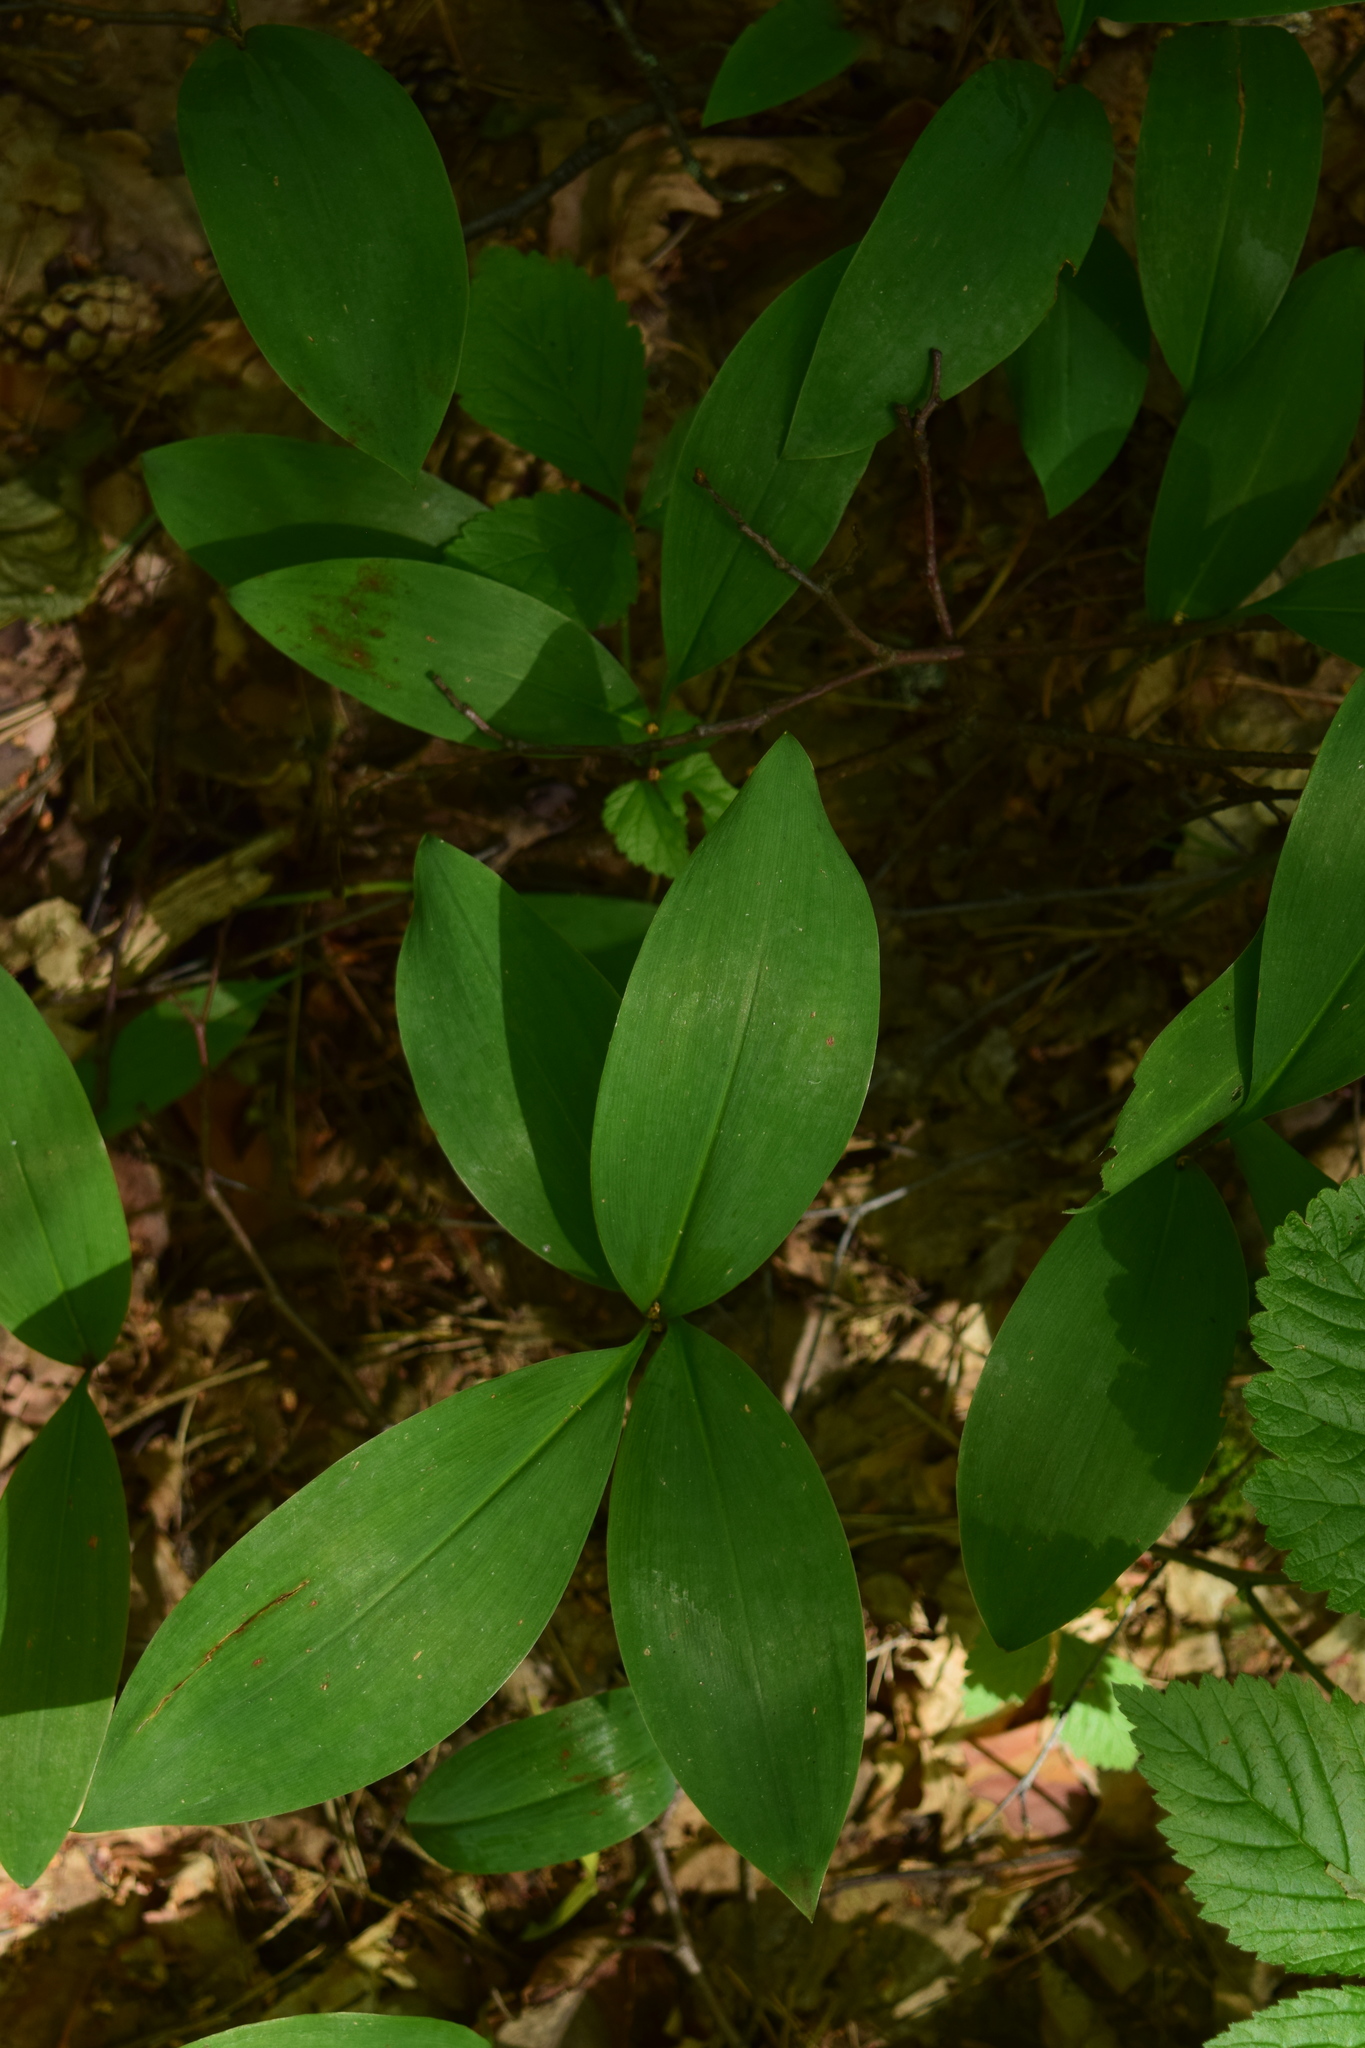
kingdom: Plantae
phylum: Tracheophyta
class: Liliopsida
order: Asparagales
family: Asparagaceae
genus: Convallaria
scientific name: Convallaria majalis
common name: Lily-of-the-valley
